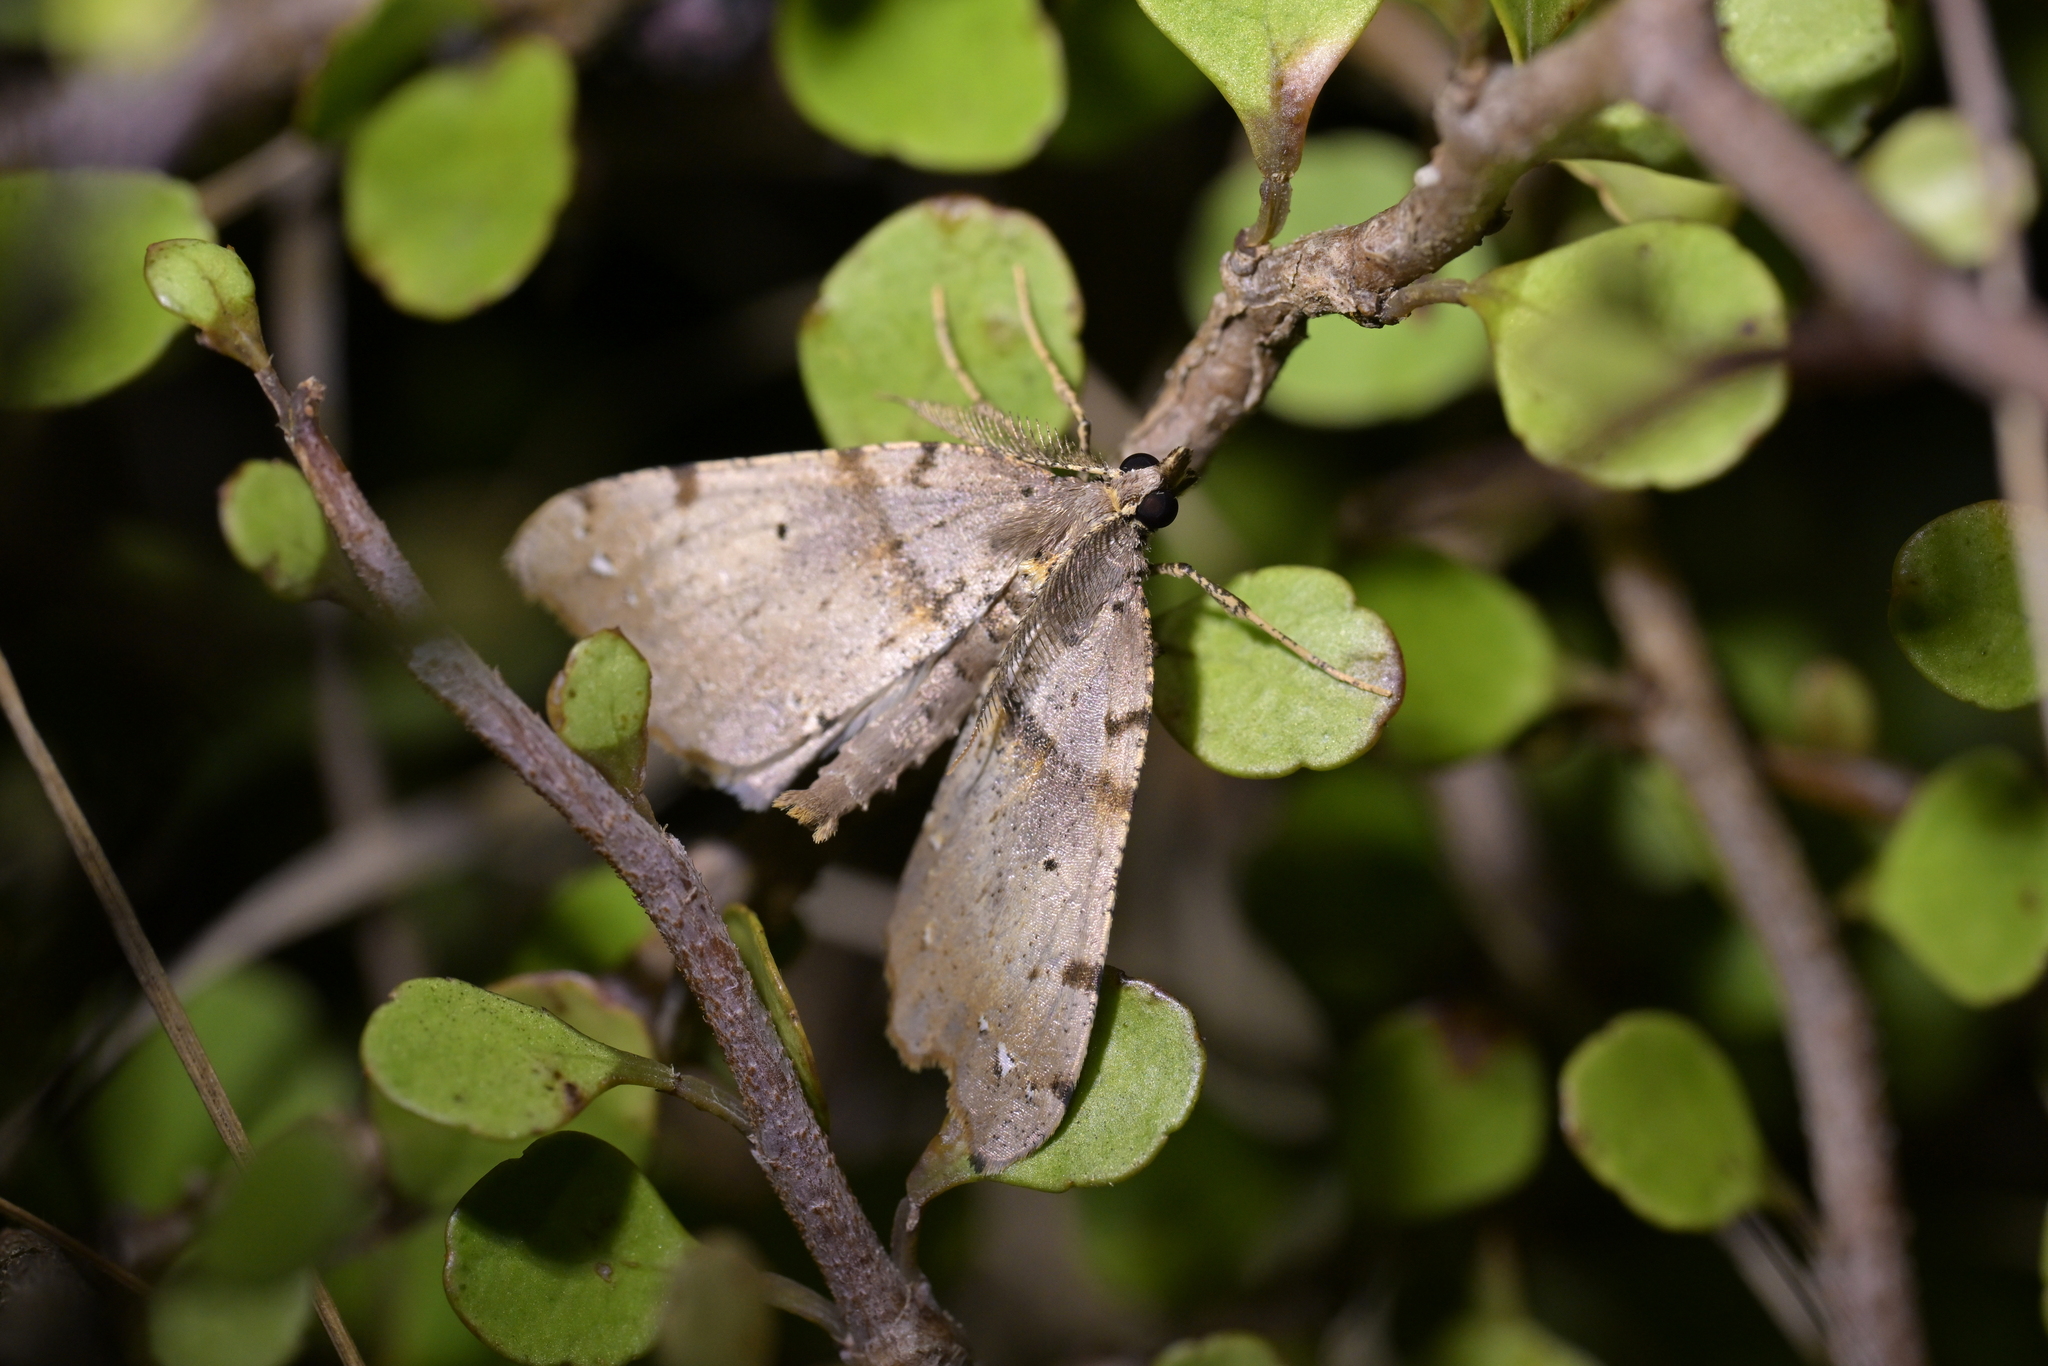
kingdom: Animalia
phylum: Arthropoda
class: Insecta
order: Lepidoptera
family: Geometridae
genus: Chalastra
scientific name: Chalastra pellurgata
